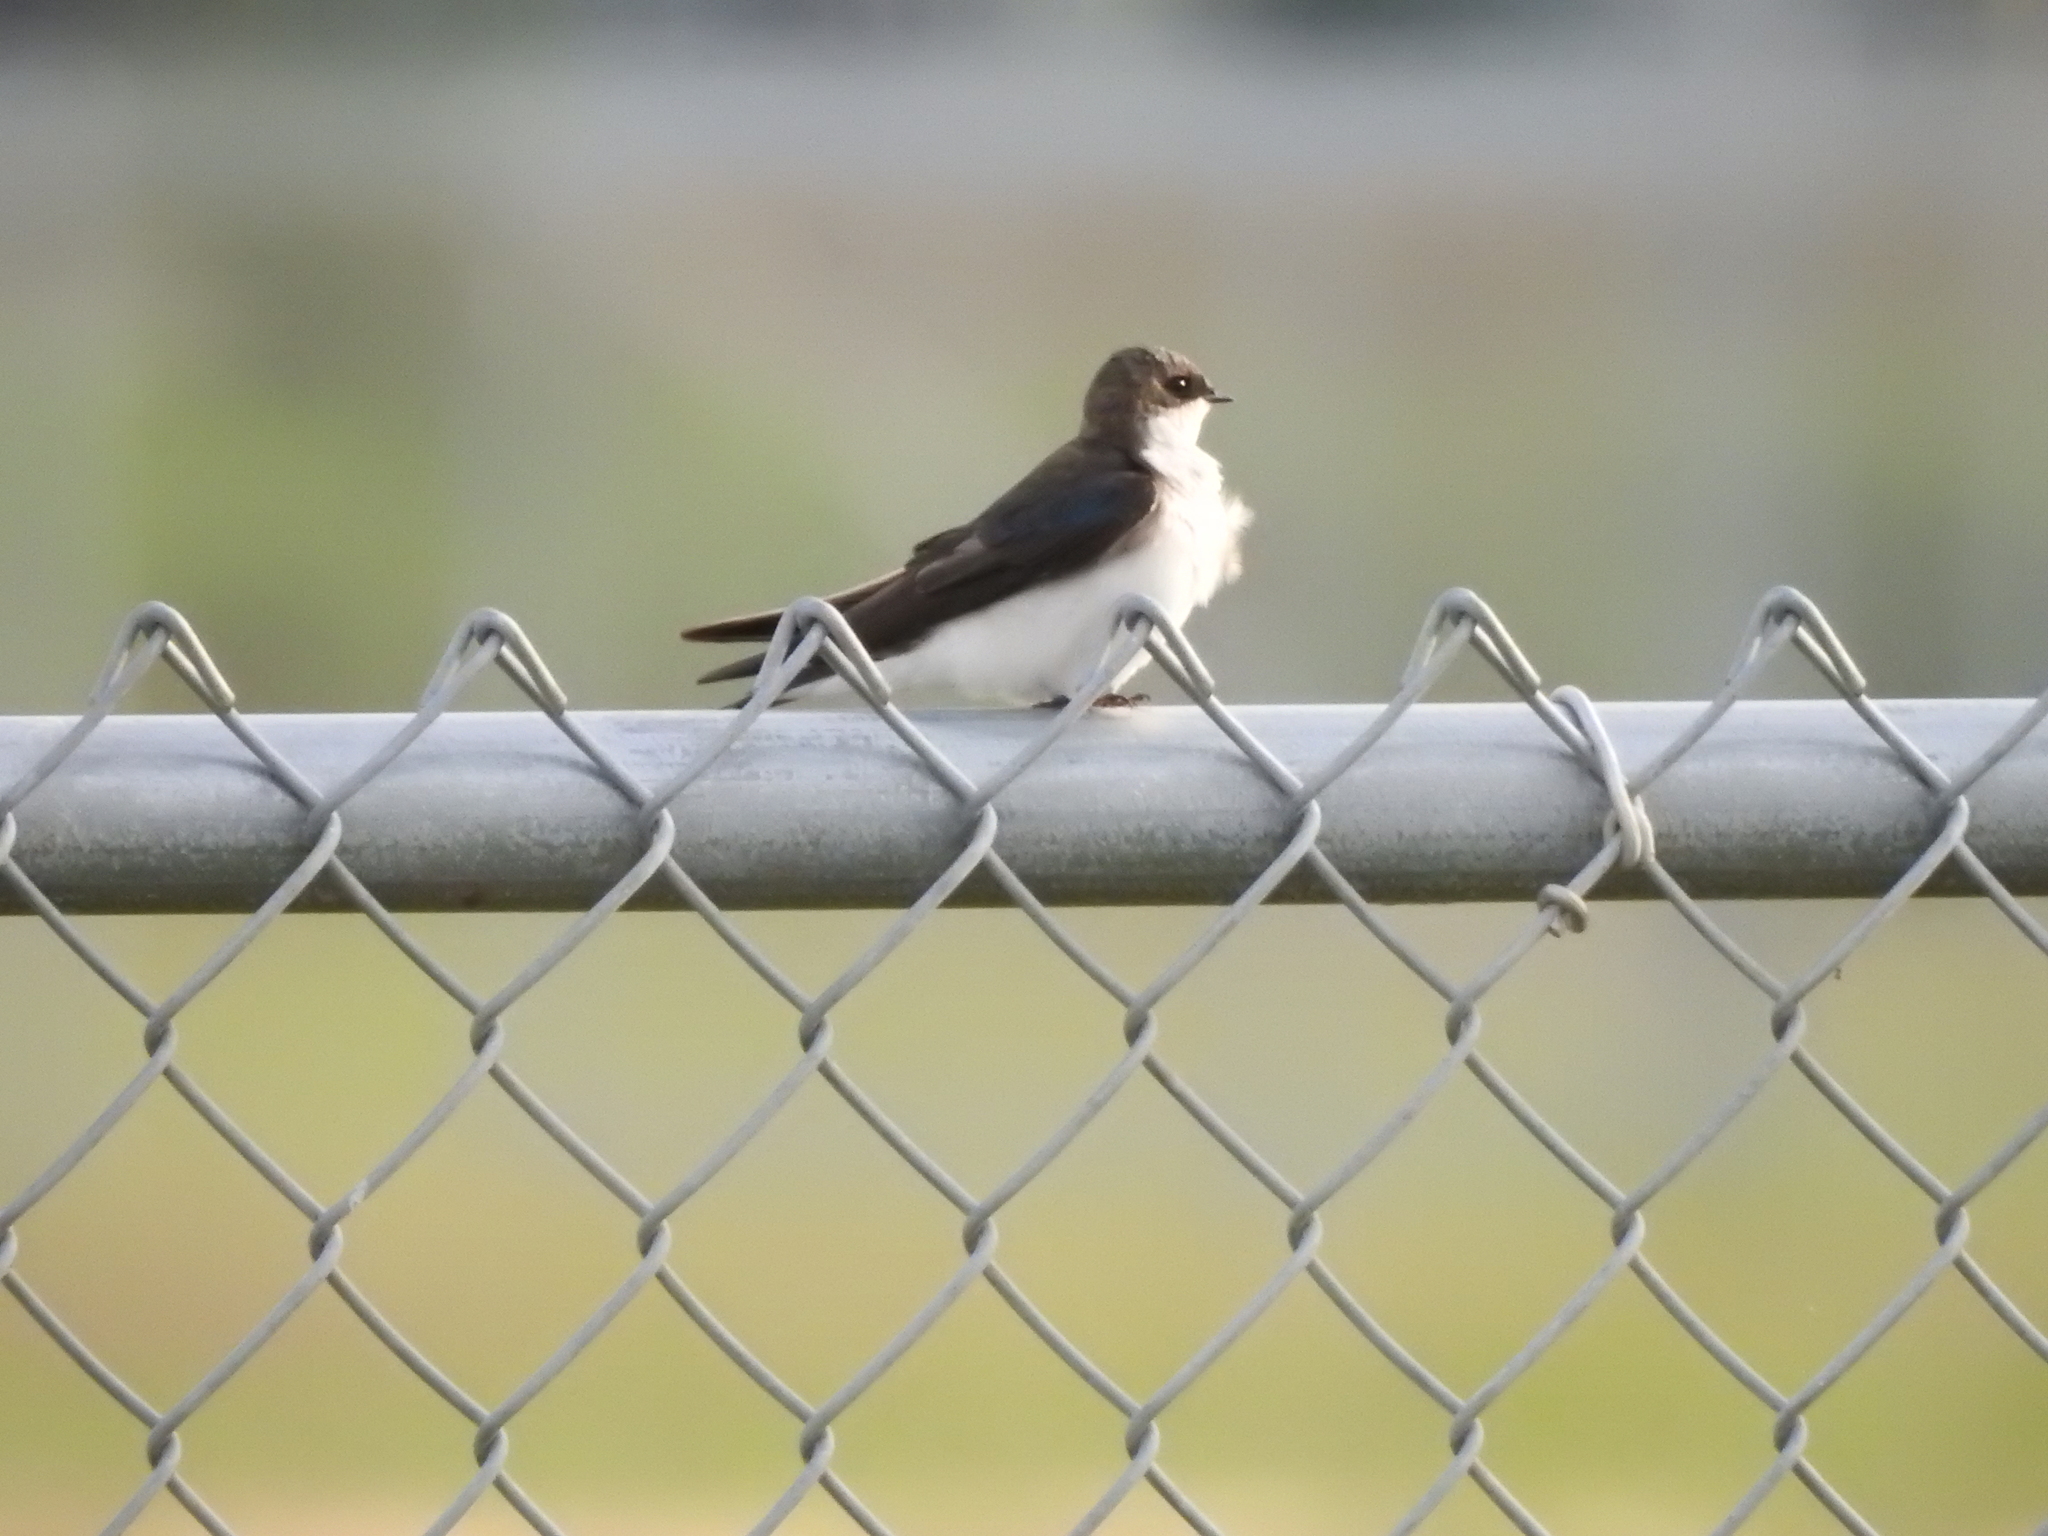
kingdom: Animalia
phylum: Chordata
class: Aves
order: Passeriformes
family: Hirundinidae
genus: Tachycineta
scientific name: Tachycineta bicolor
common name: Tree swallow
